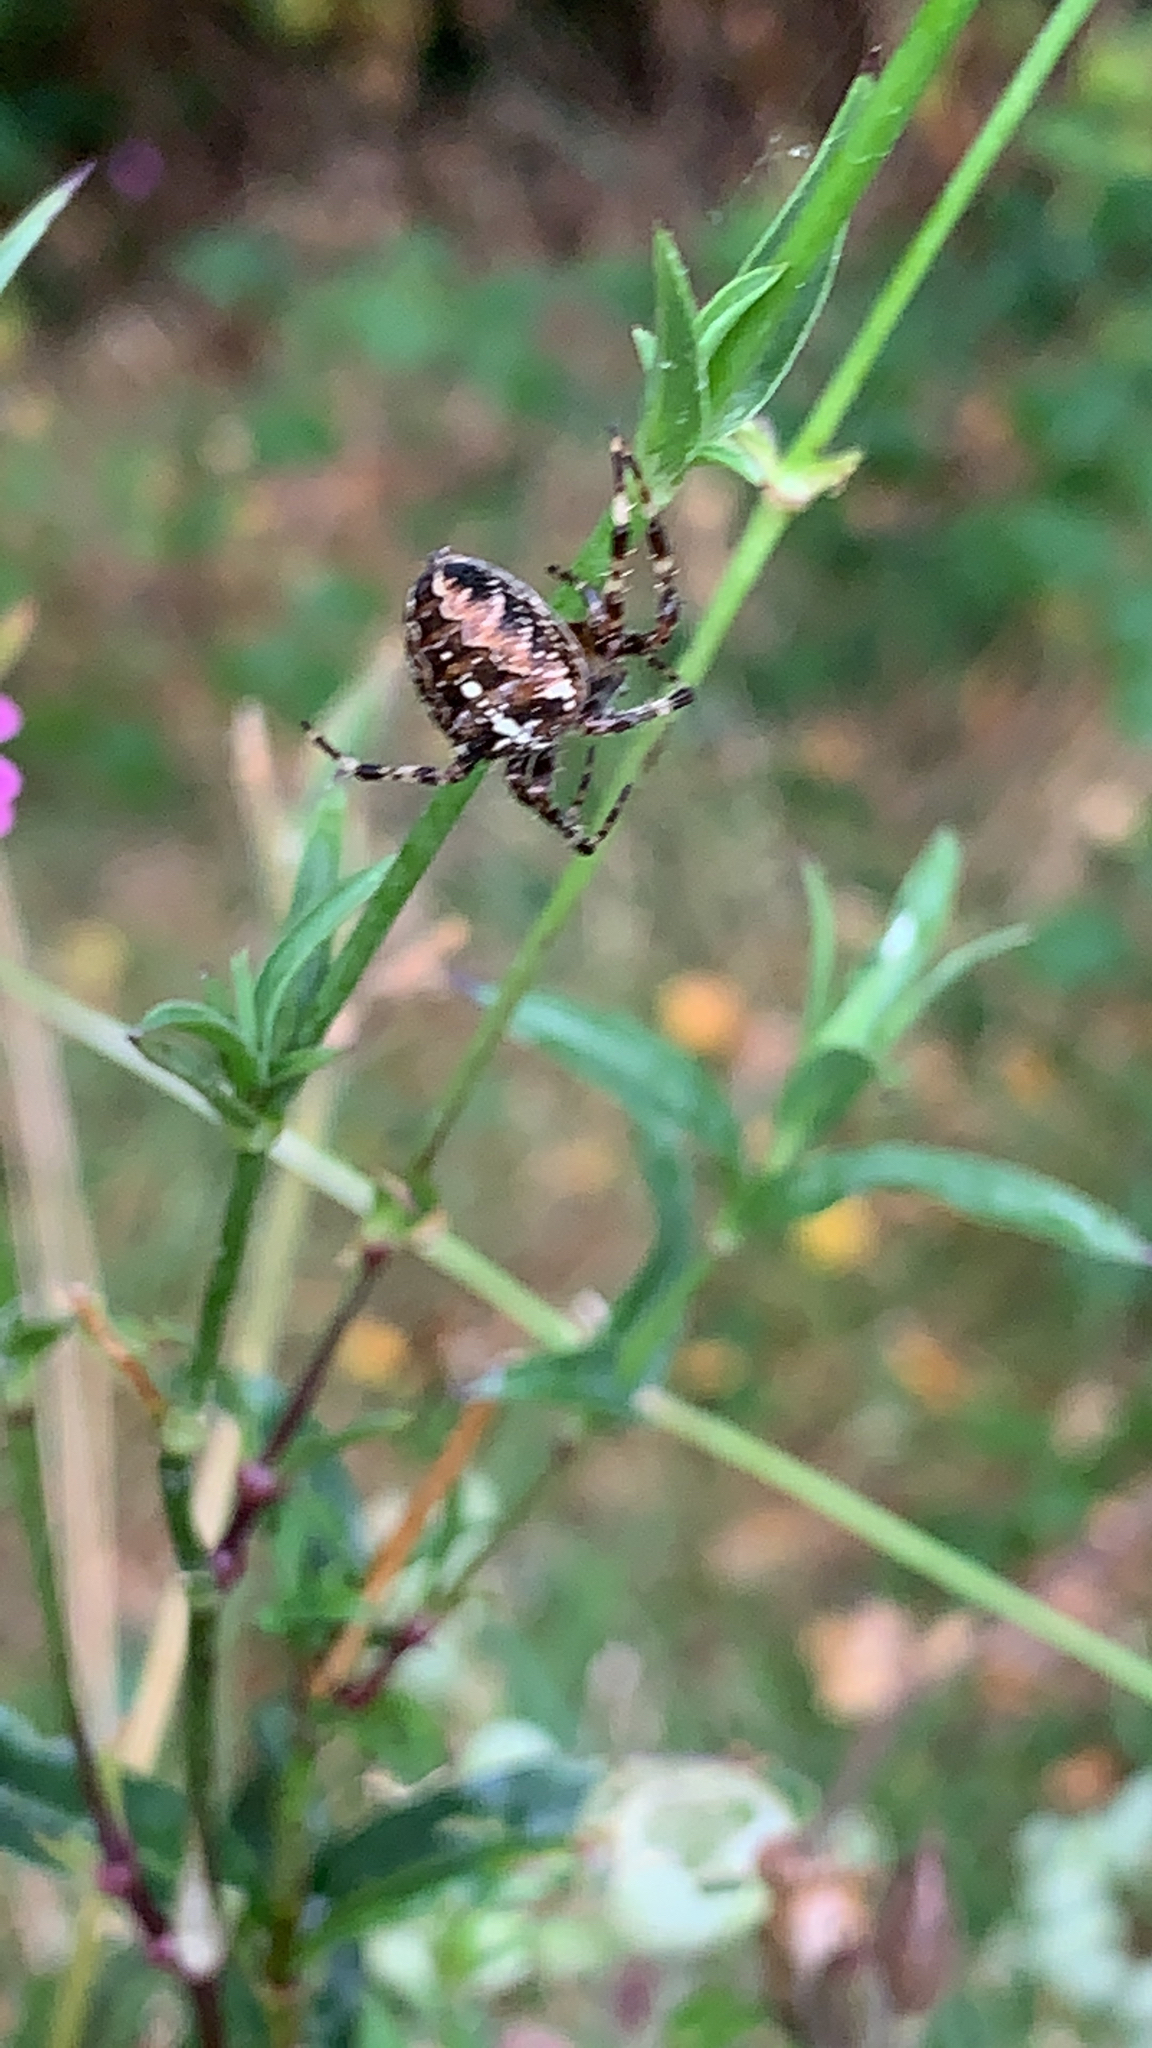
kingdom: Animalia
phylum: Arthropoda
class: Arachnida
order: Araneae
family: Araneidae
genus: Araneus
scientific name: Araneus diadematus
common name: Cross orbweaver
